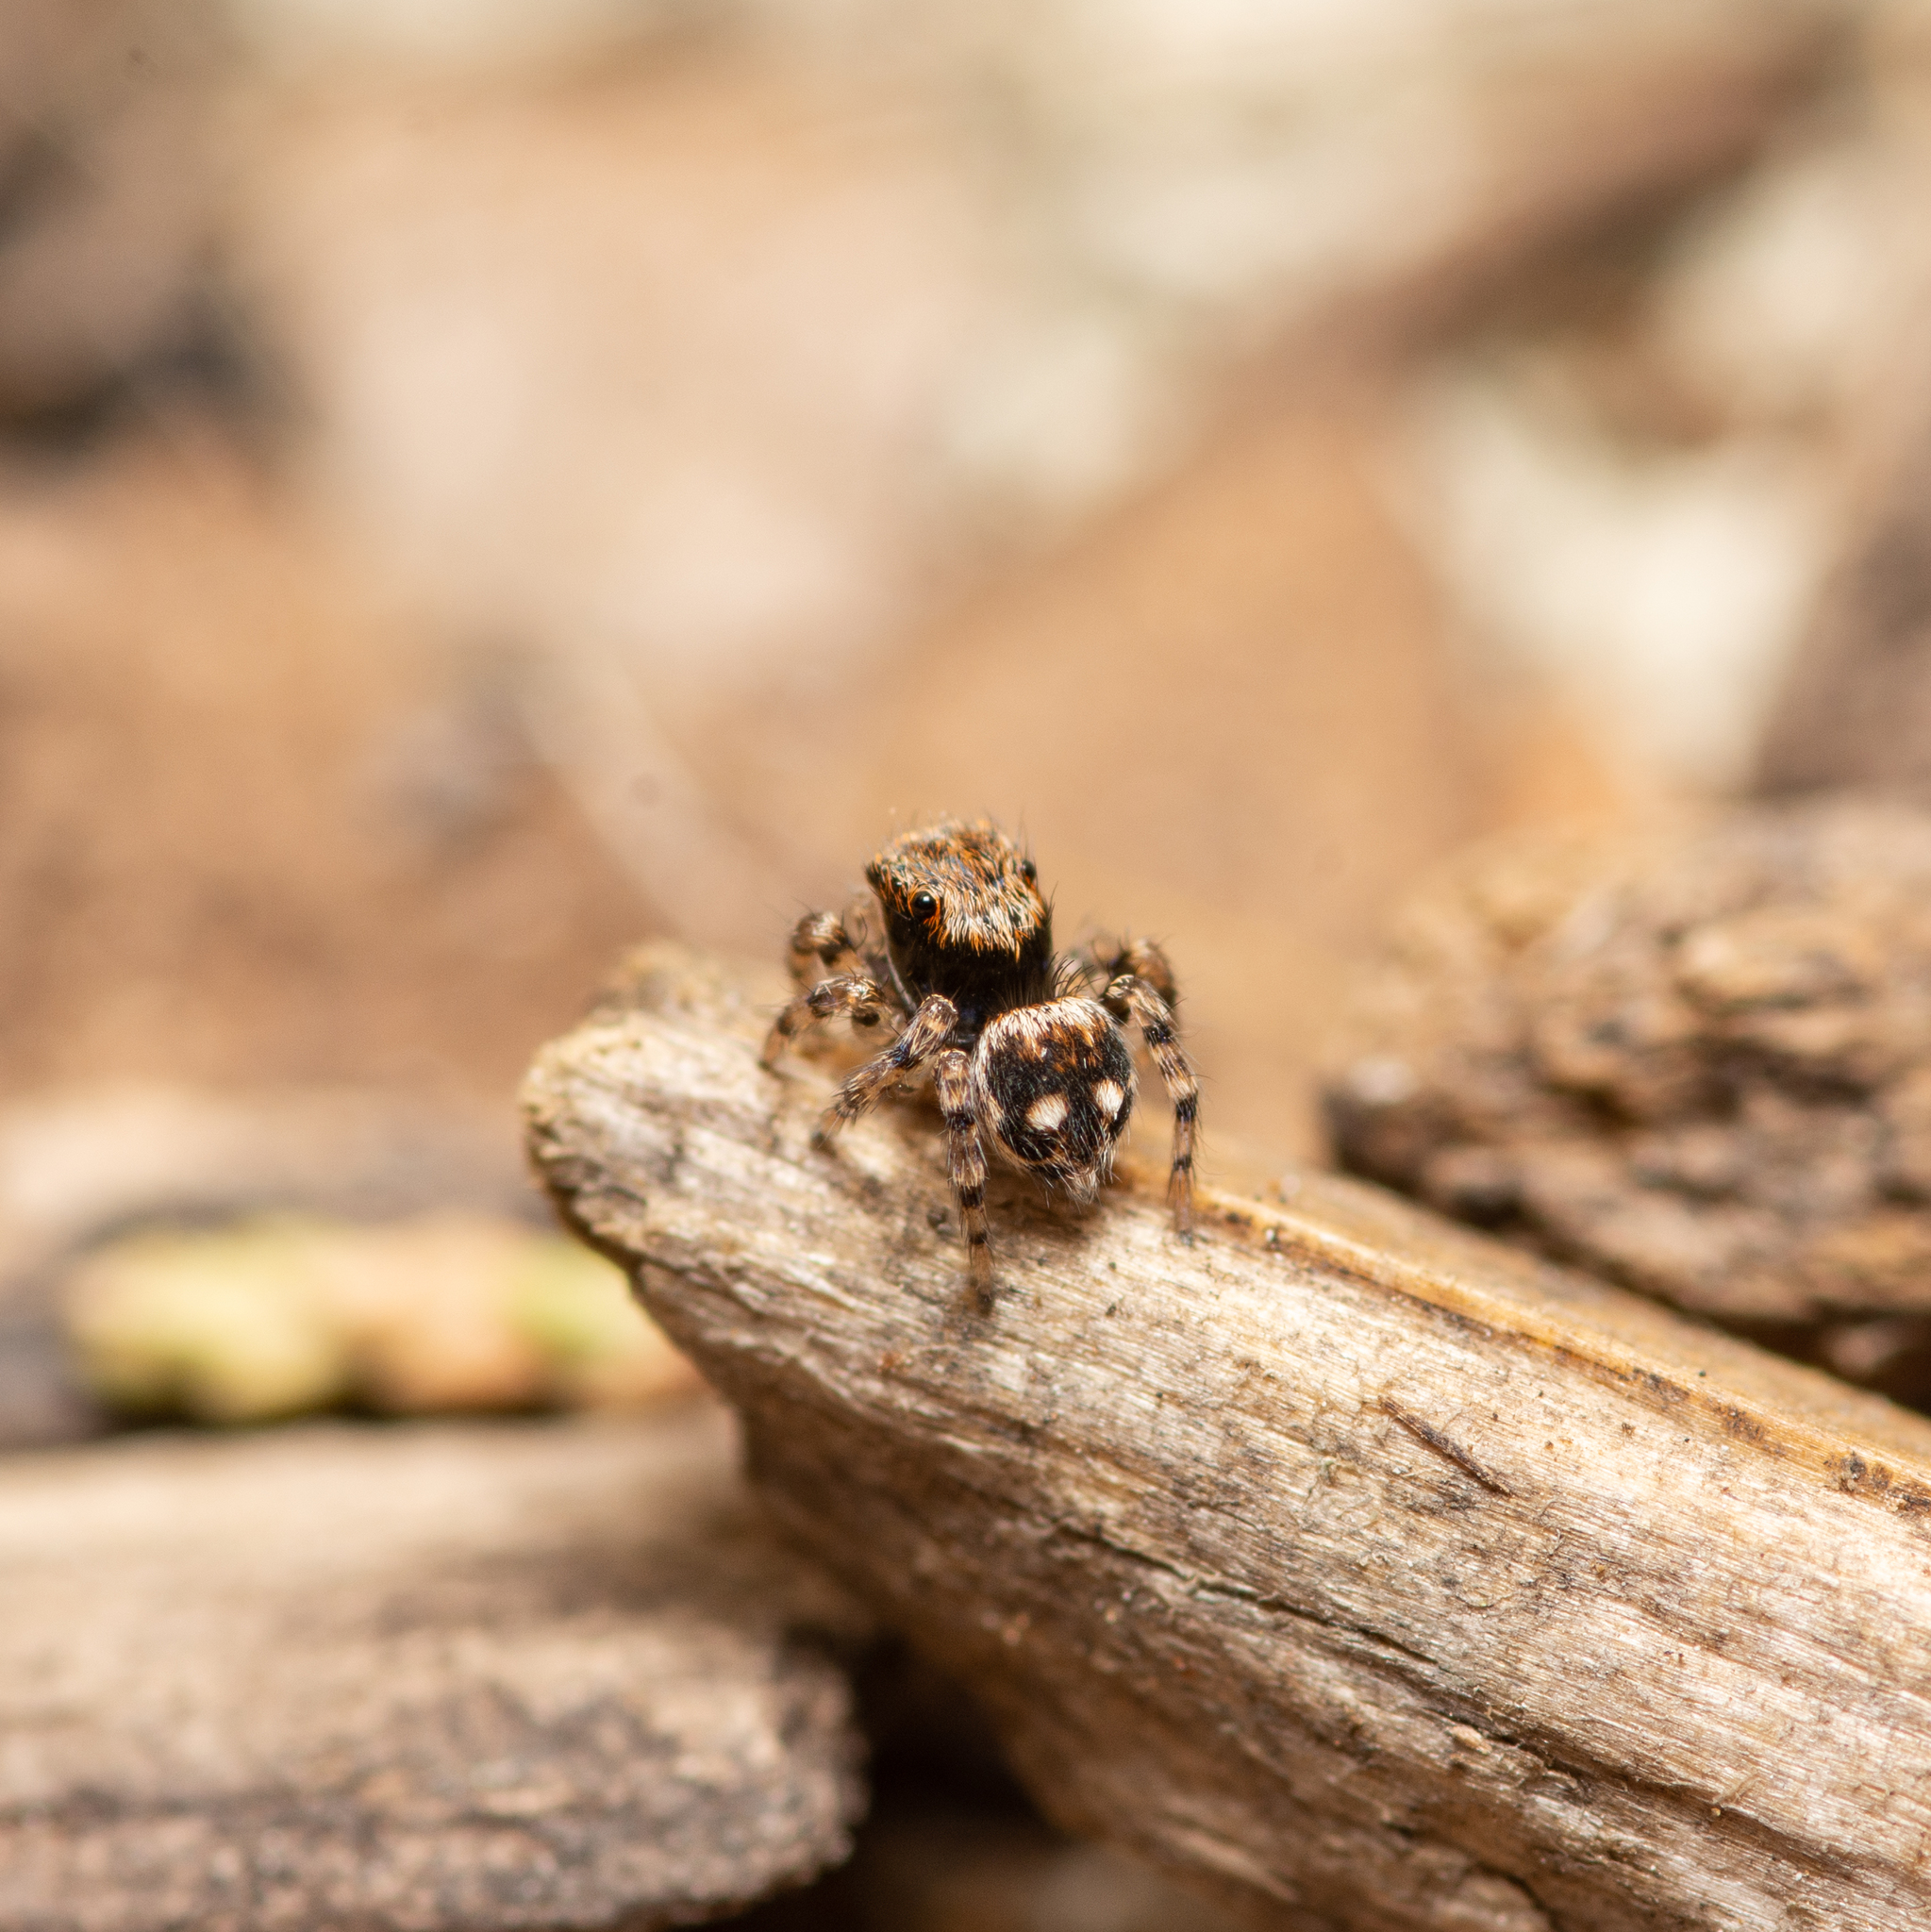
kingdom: Animalia
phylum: Arthropoda
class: Arachnida
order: Araneae
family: Salticidae
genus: Naphrys
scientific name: Naphrys acerba
